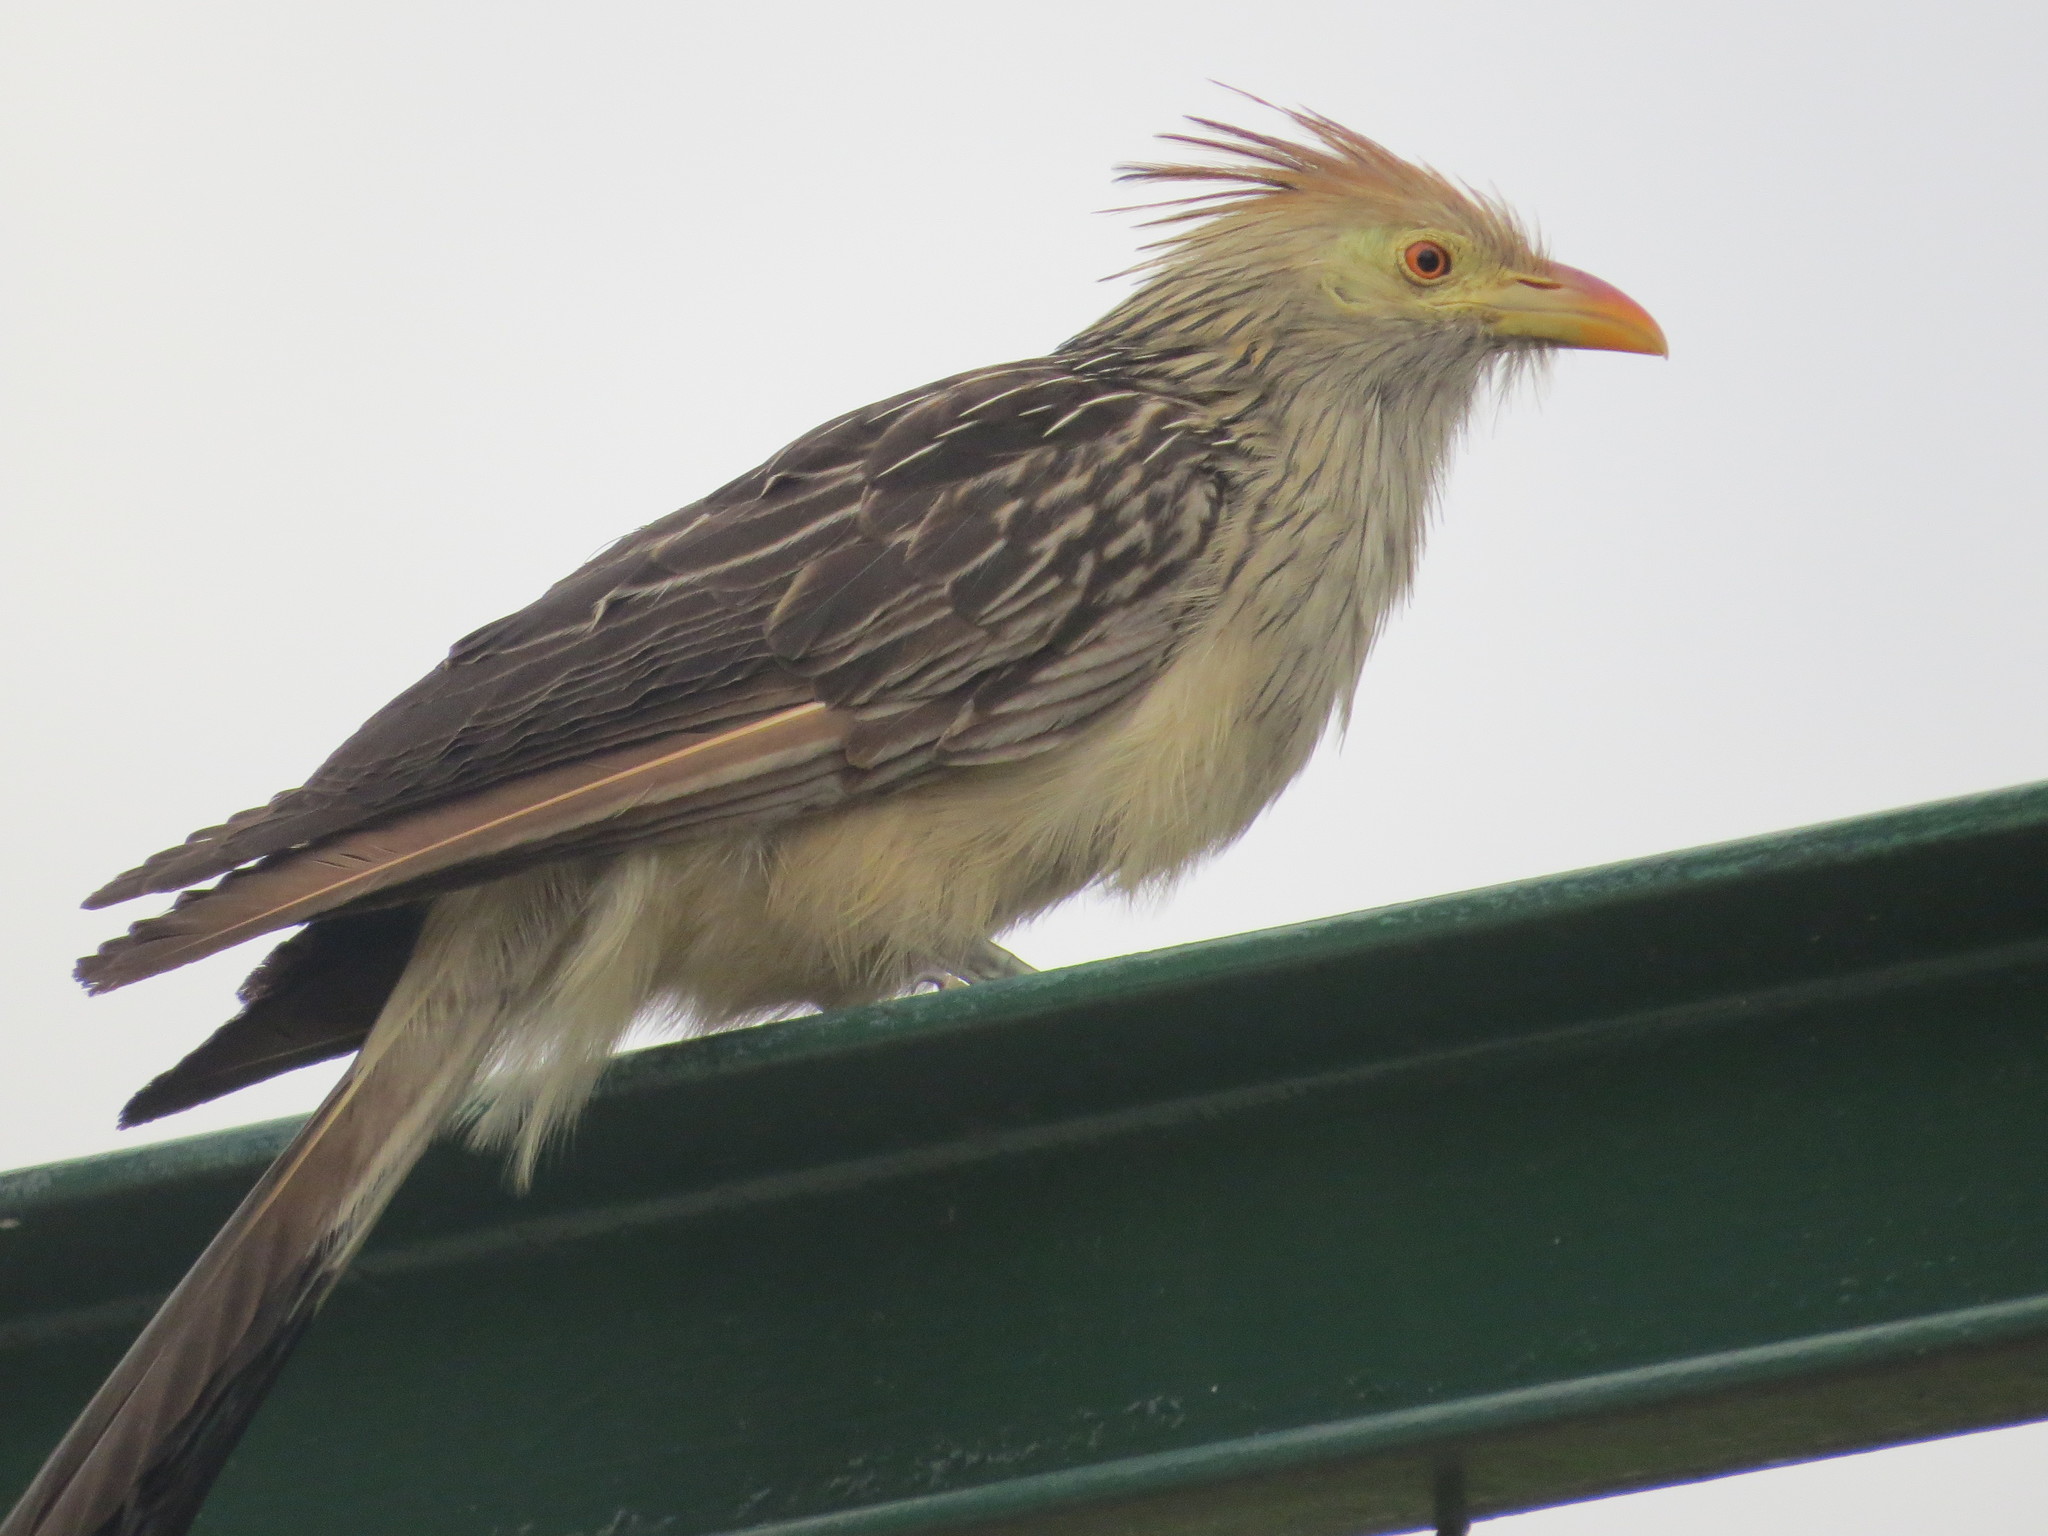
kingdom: Animalia
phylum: Chordata
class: Aves
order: Cuculiformes
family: Cuculidae
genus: Guira
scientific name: Guira guira
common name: Guira cuckoo
